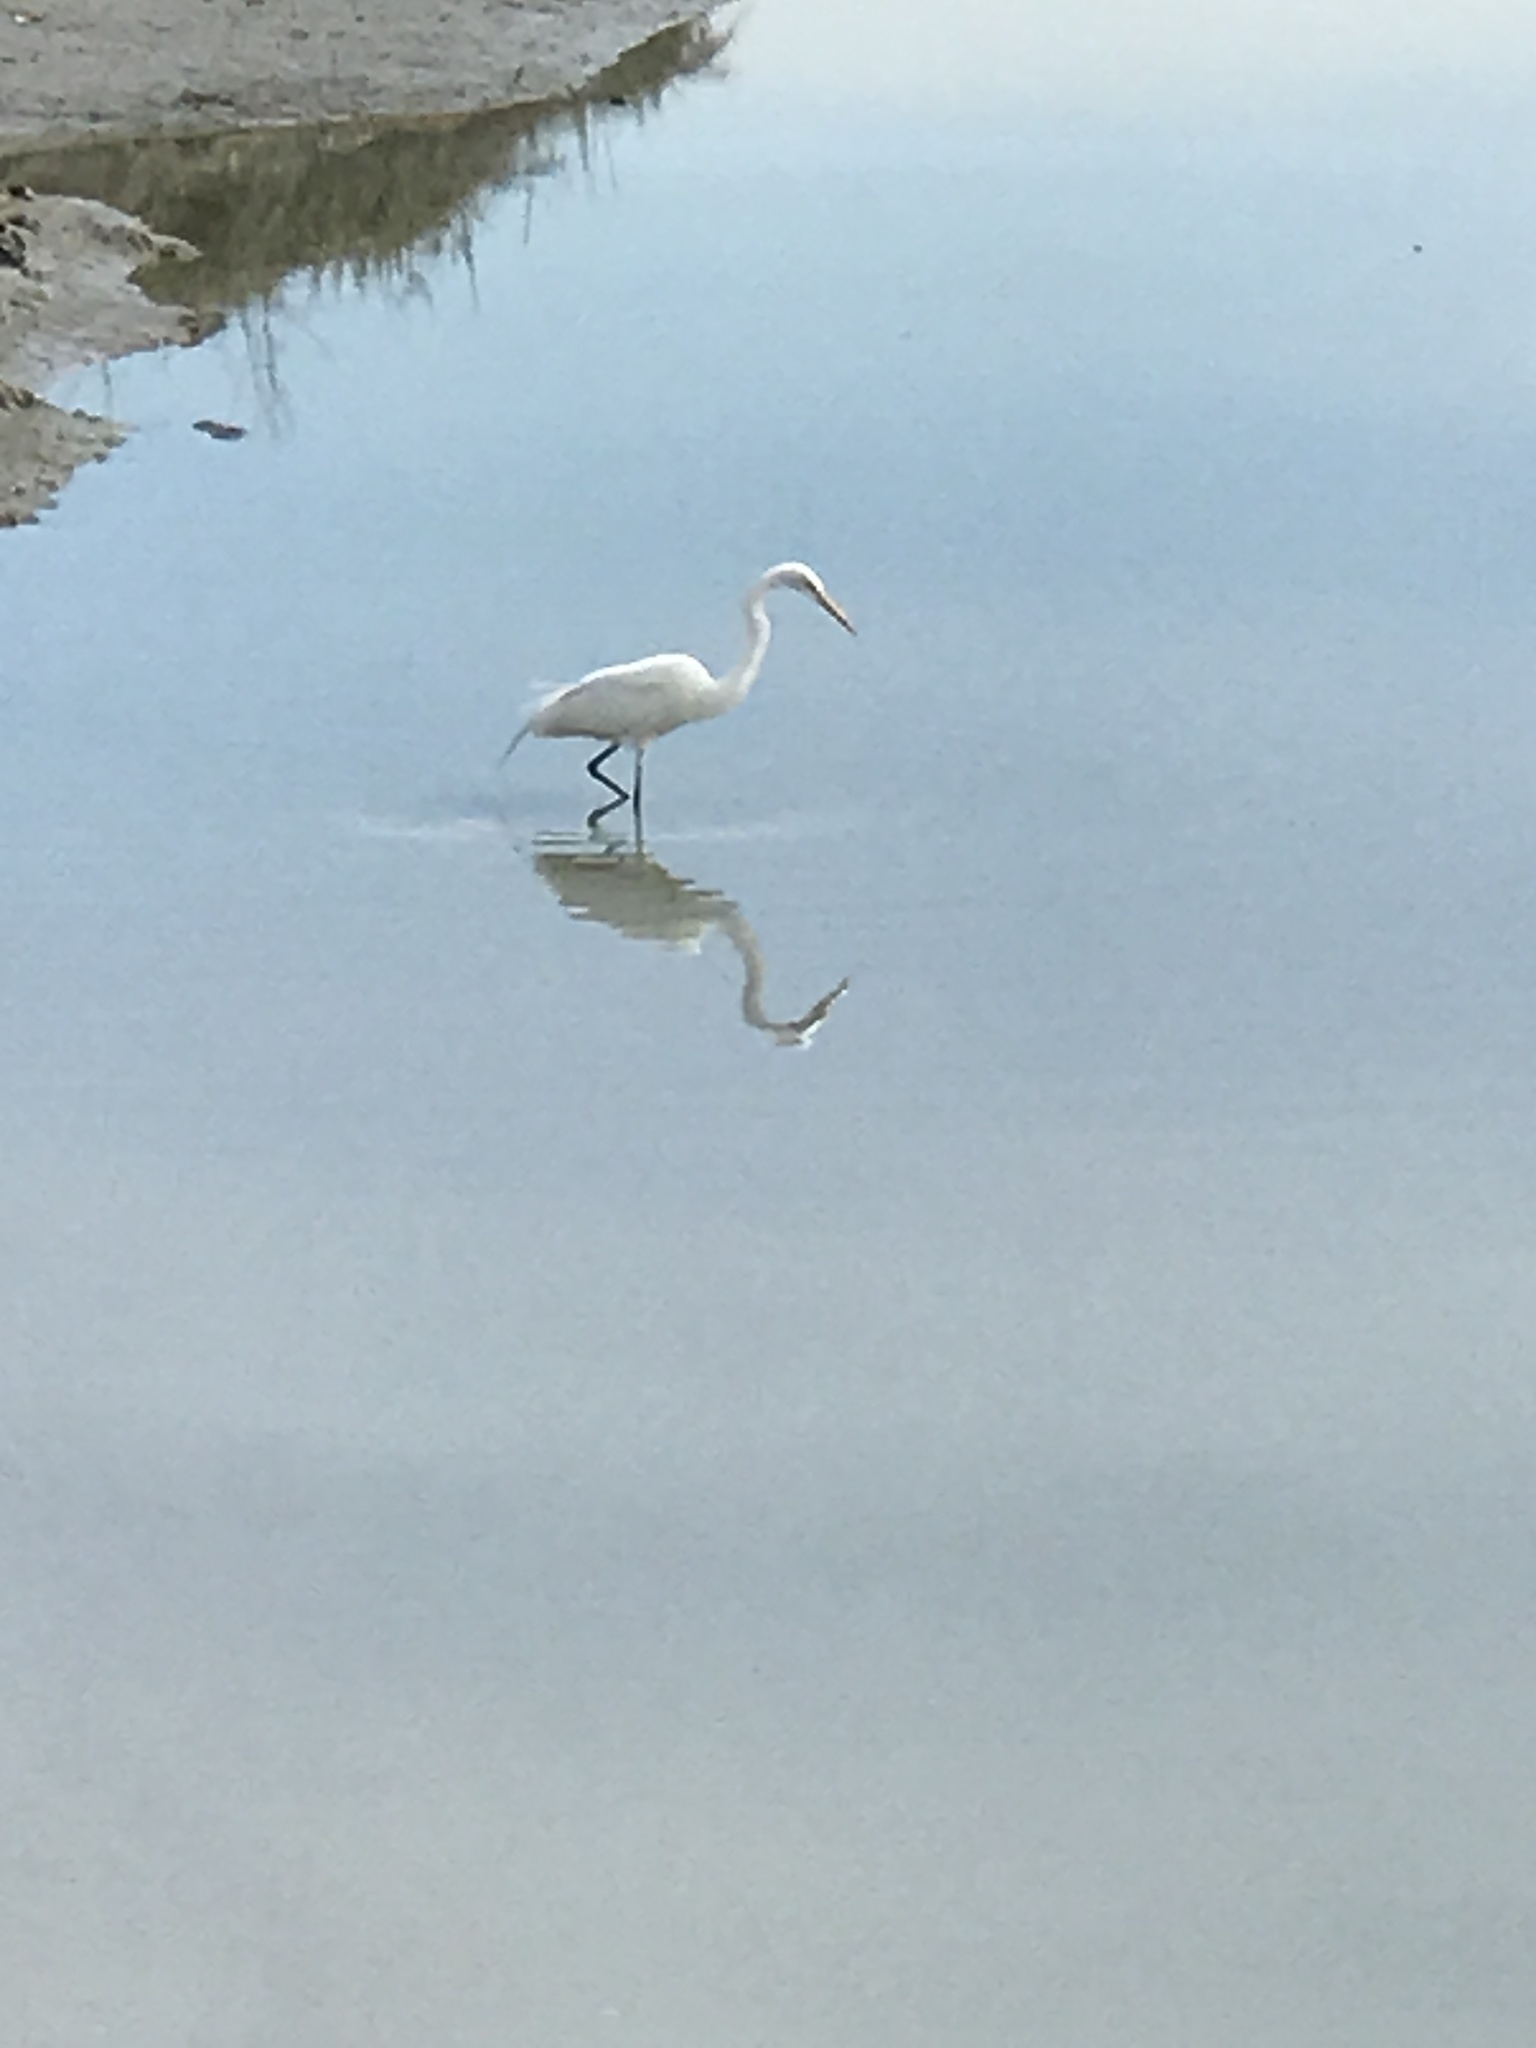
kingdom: Animalia
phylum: Chordata
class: Aves
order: Pelecaniformes
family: Ardeidae
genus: Ardea
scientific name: Ardea alba
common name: Great egret
